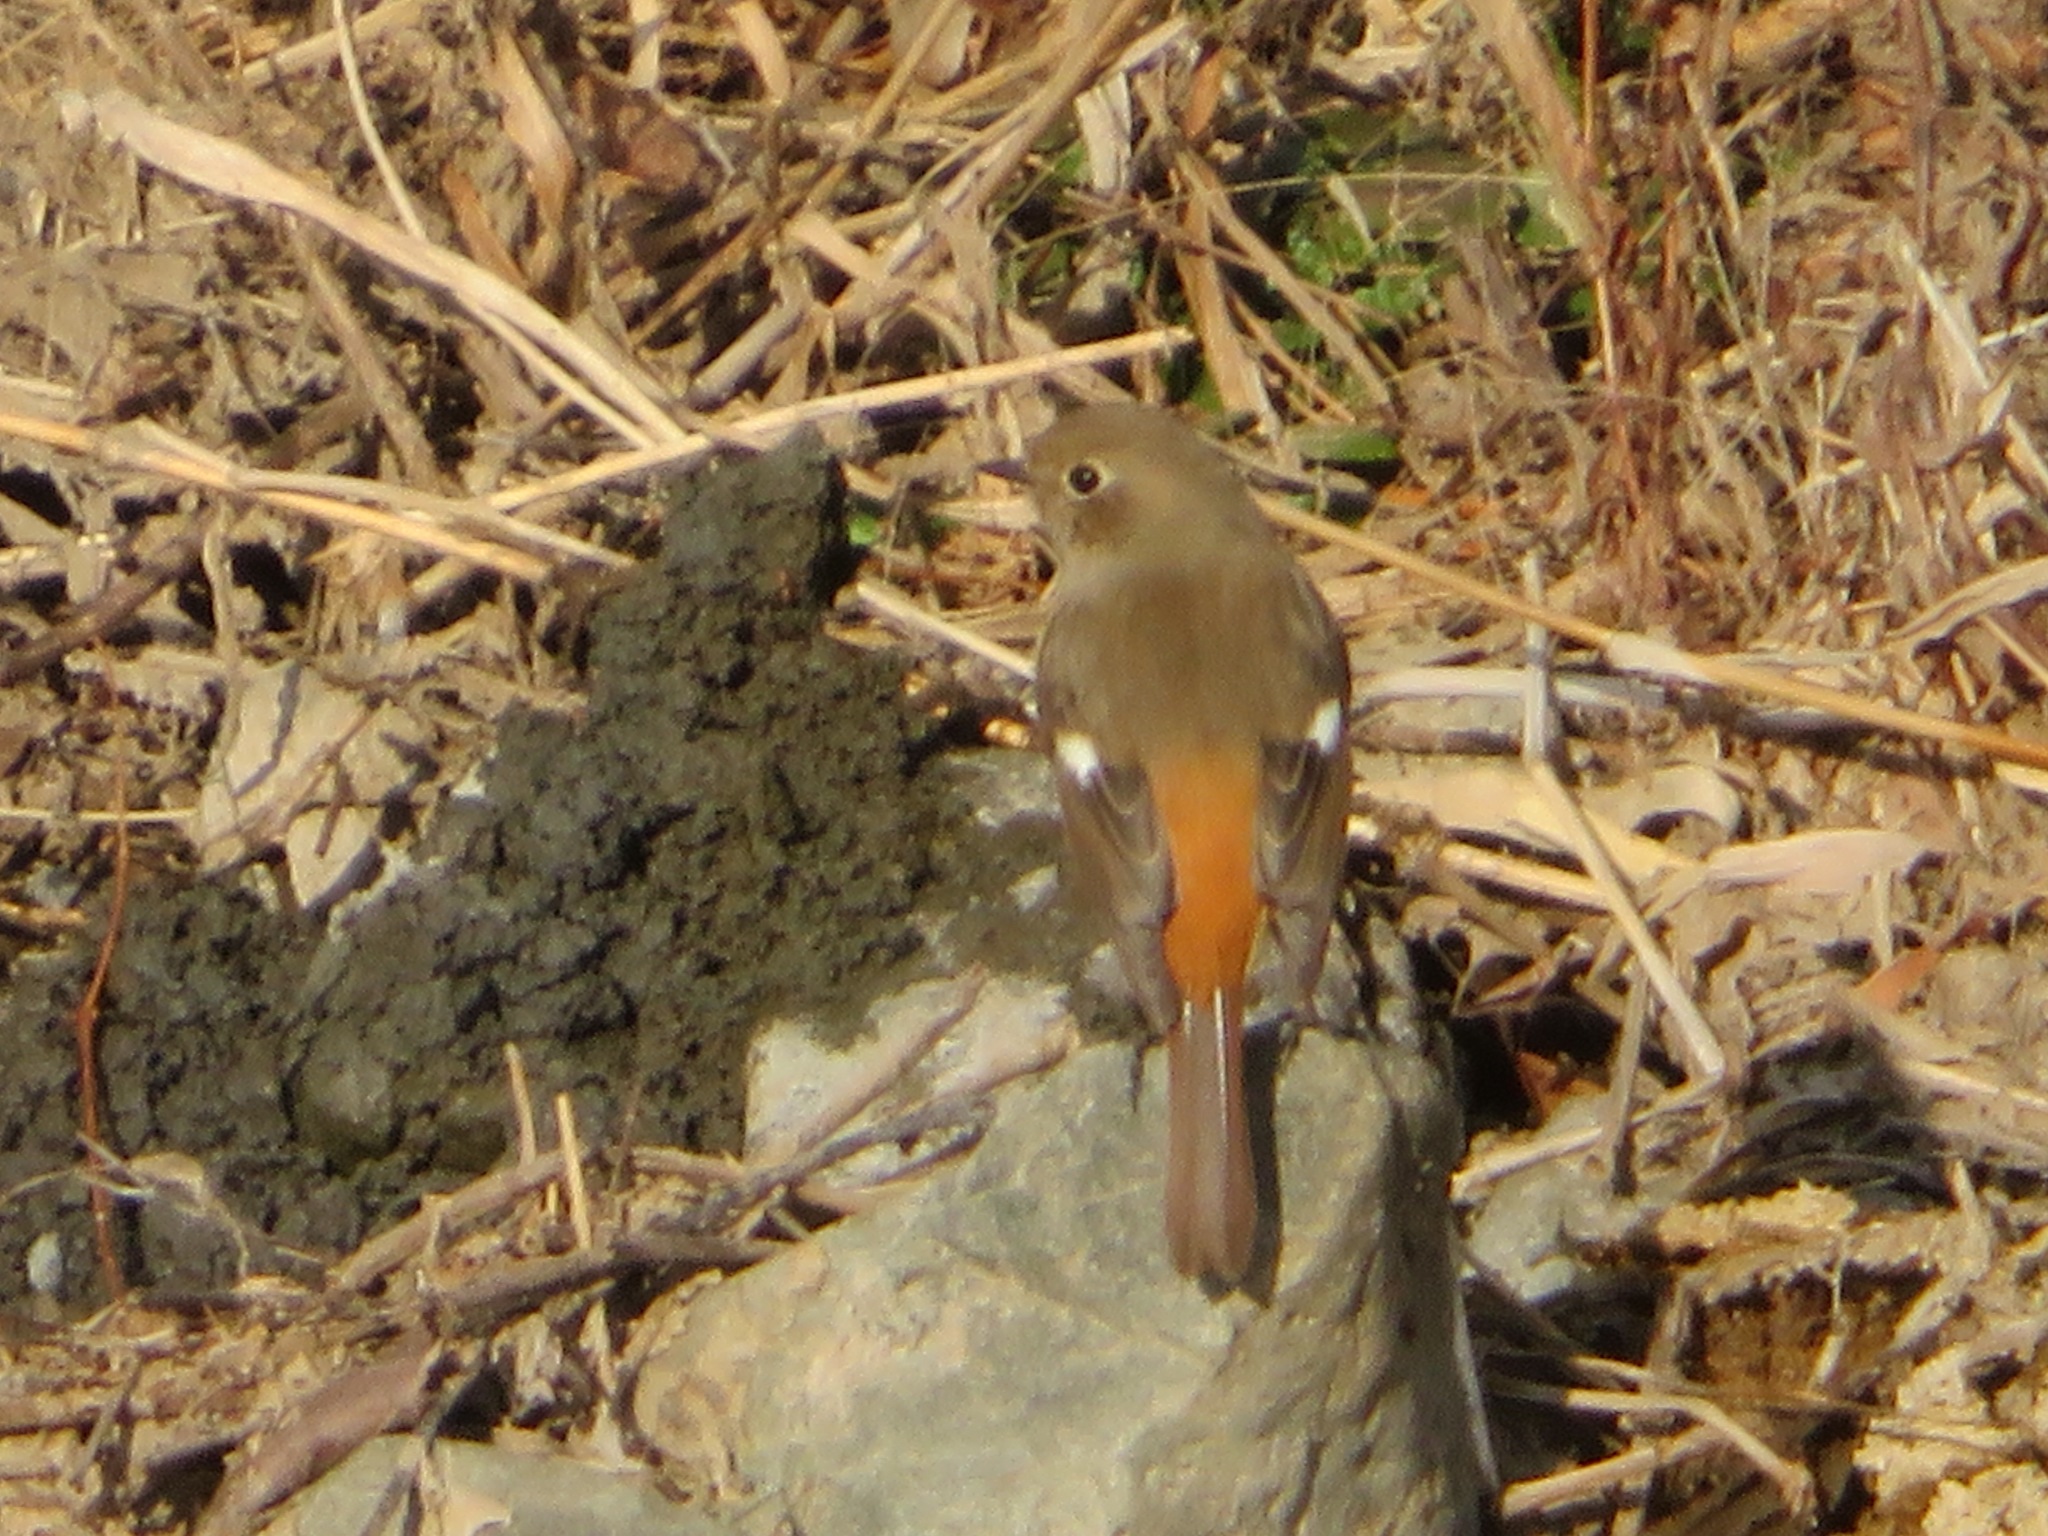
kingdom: Animalia
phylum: Chordata
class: Aves
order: Passeriformes
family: Muscicapidae
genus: Phoenicurus
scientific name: Phoenicurus auroreus
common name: Daurian redstart
